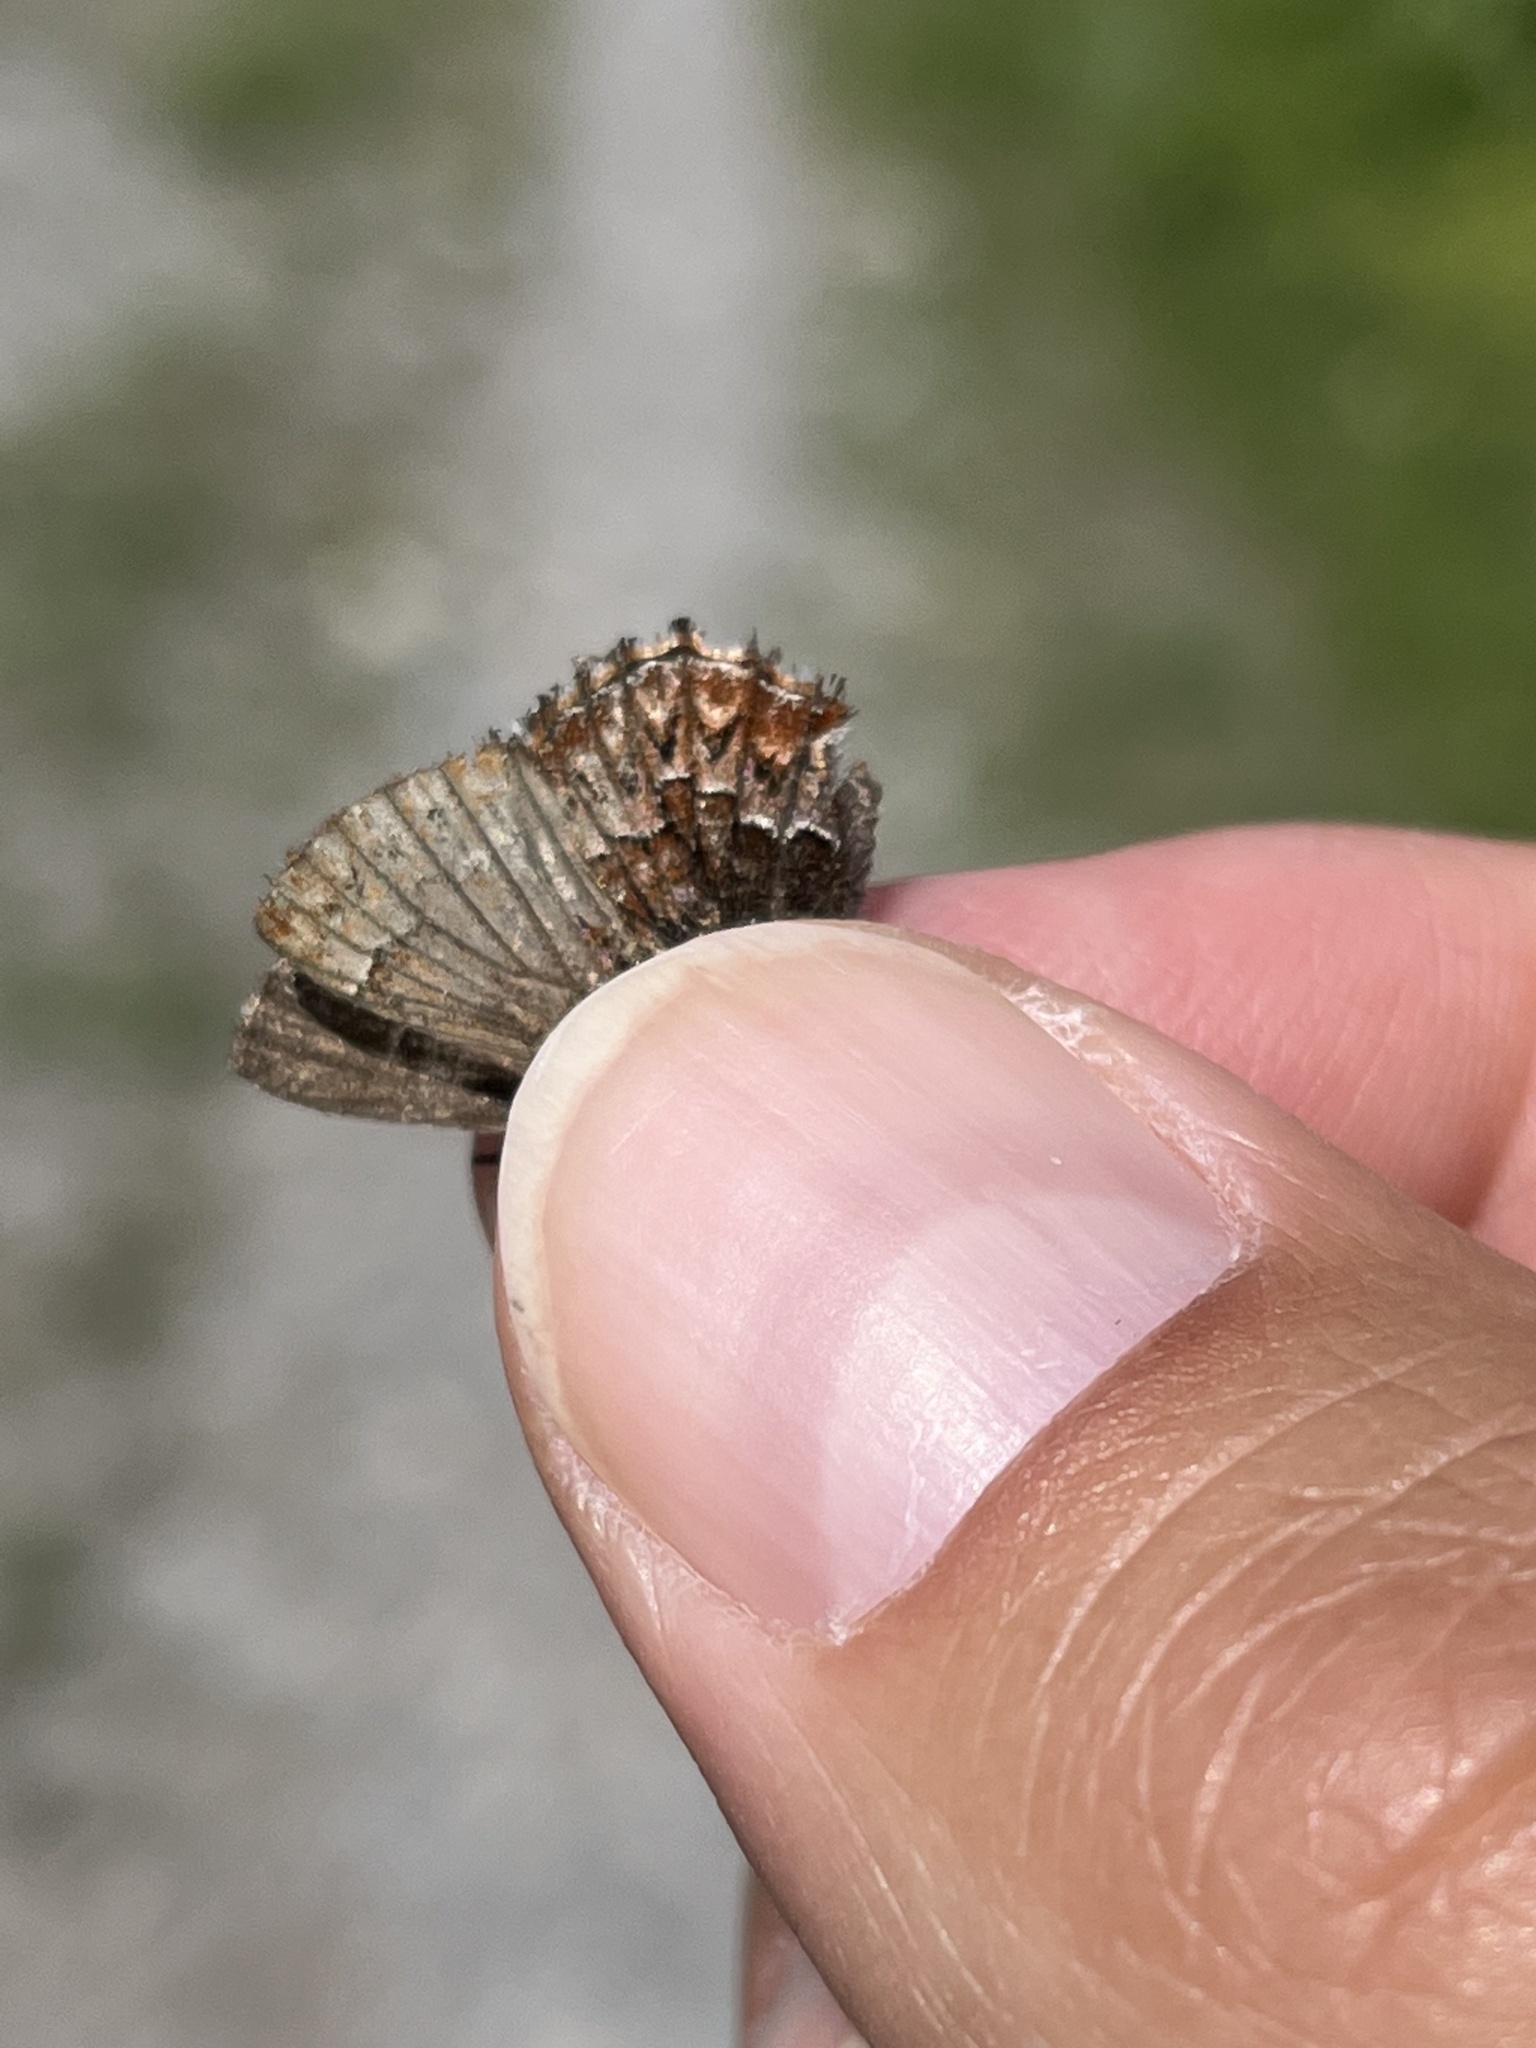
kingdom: Animalia
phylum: Arthropoda
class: Insecta
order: Lepidoptera
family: Lycaenidae
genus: Incisalia
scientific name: Incisalia eryphon
